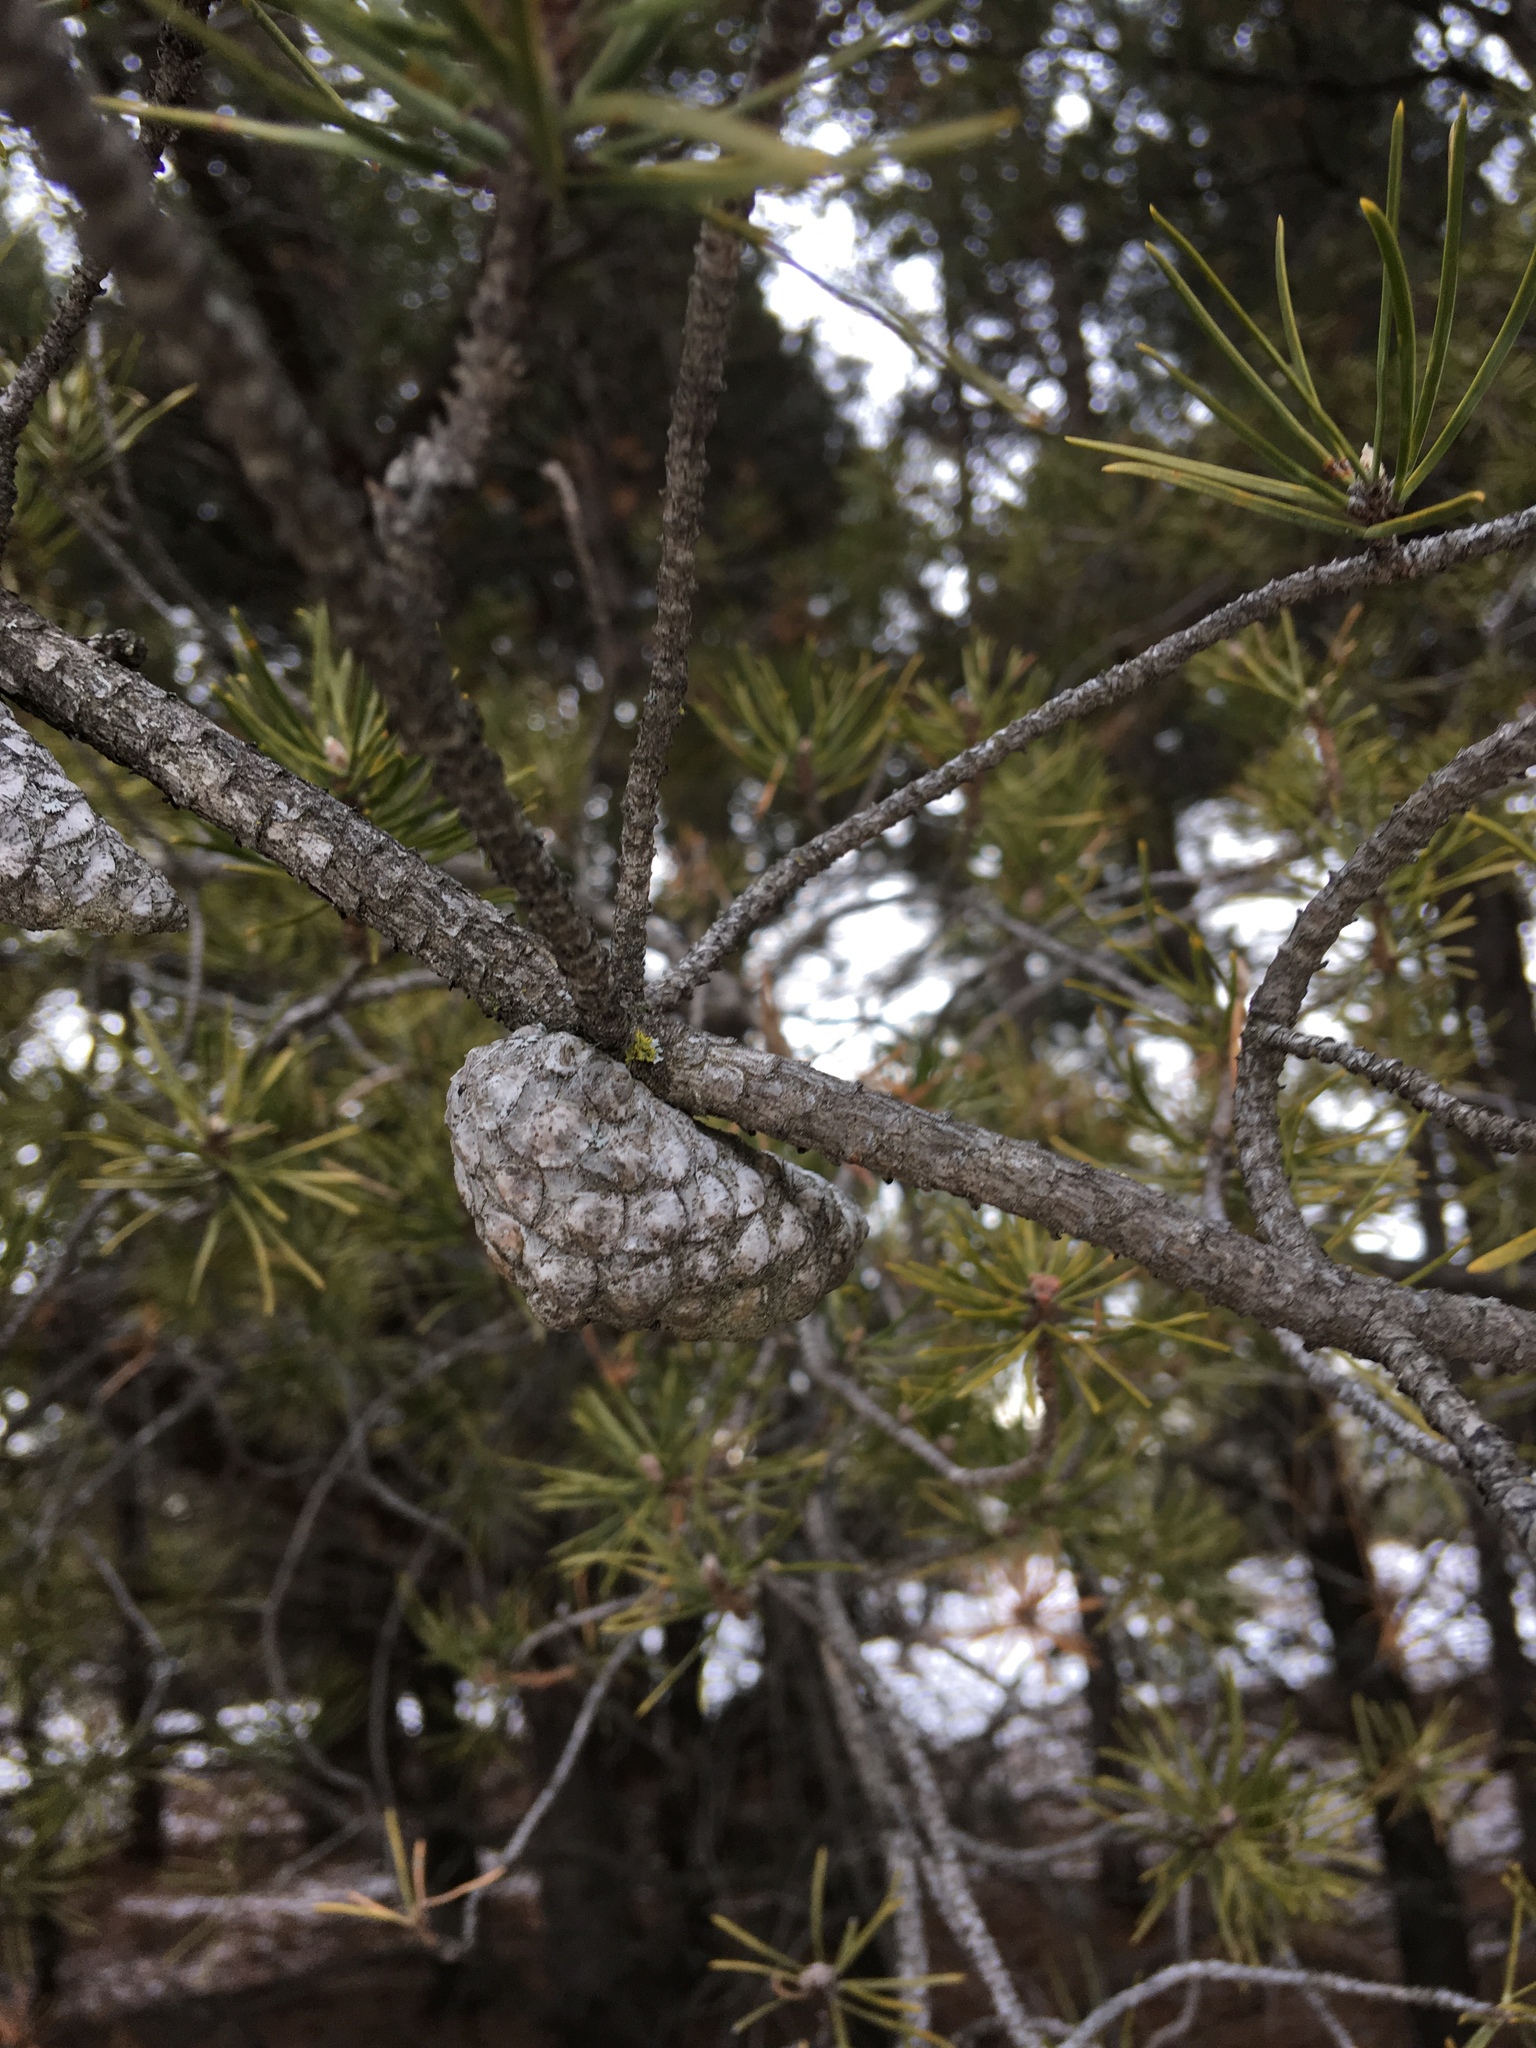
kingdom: Plantae
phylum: Tracheophyta
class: Pinopsida
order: Pinales
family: Pinaceae
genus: Pinus
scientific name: Pinus banksiana
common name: Jack pine
